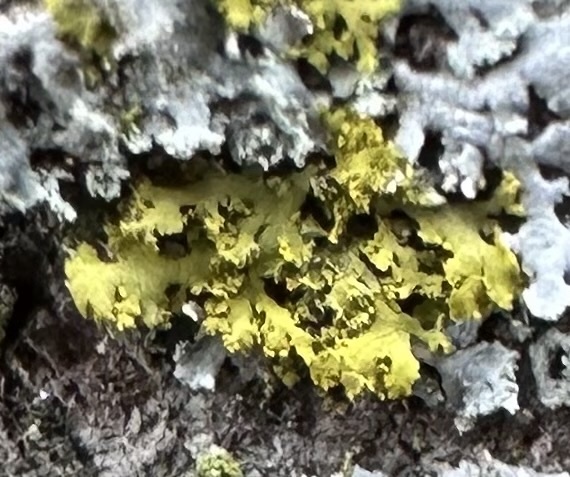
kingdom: Fungi
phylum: Ascomycota
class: Candelariomycetes
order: Candelariales
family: Candelariaceae
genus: Candelaria
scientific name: Candelaria concolor
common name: Candleflame lichen
